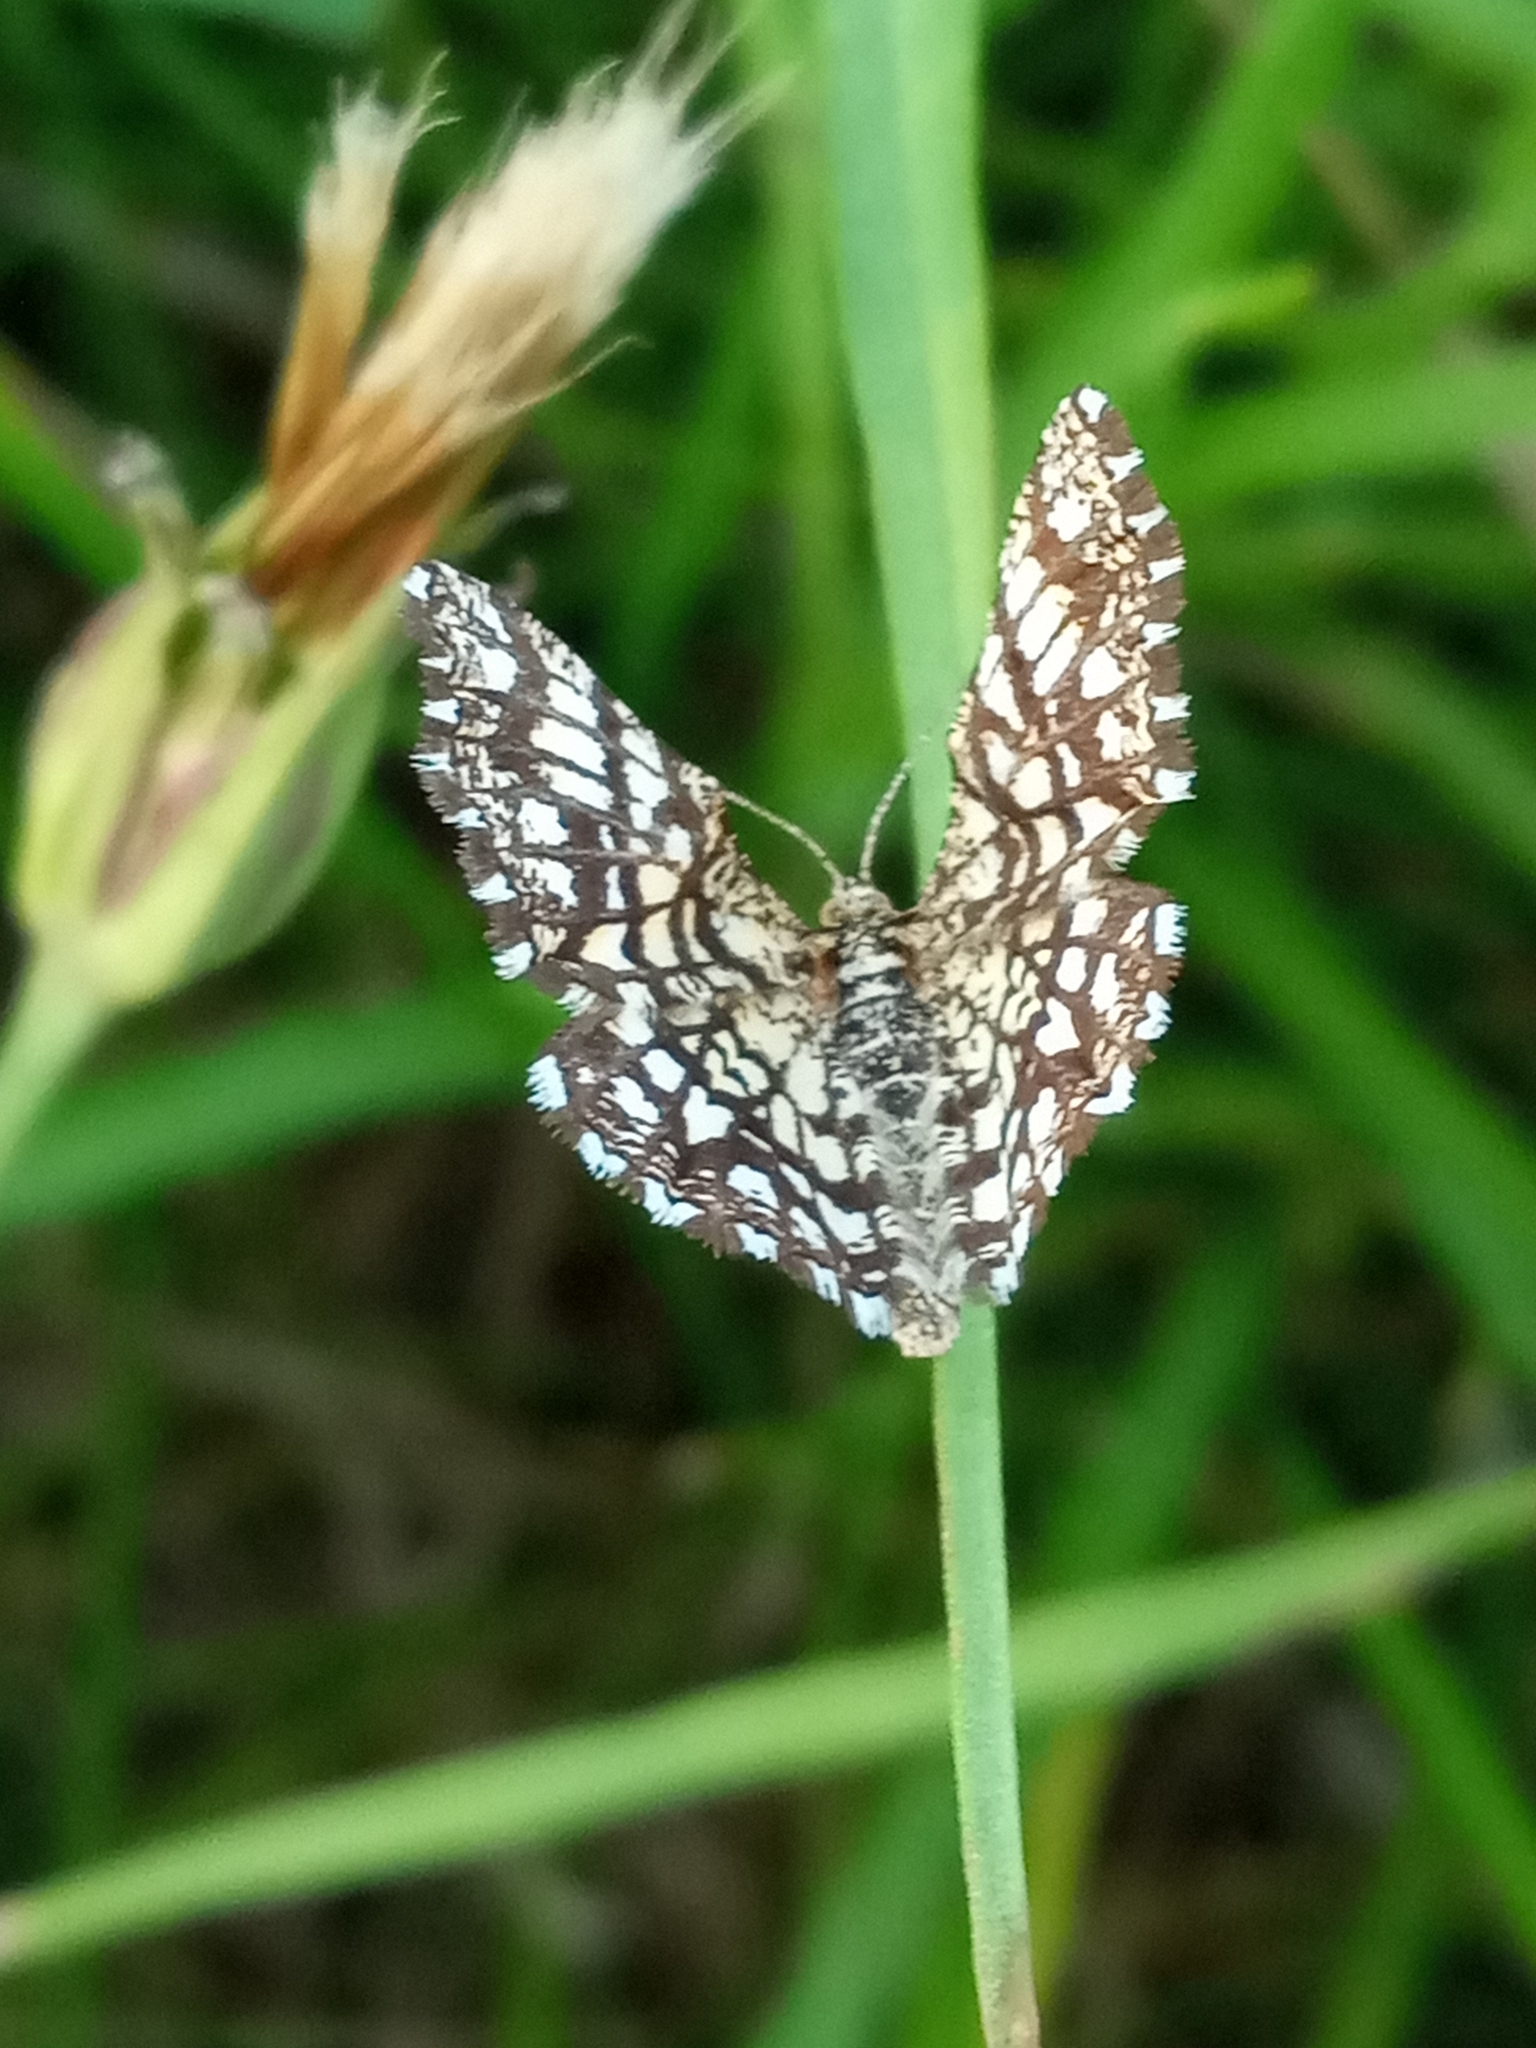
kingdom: Animalia
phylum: Arthropoda
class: Insecta
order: Lepidoptera
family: Geometridae
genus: Chiasmia
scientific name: Chiasmia clathrata
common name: Latticed heath
